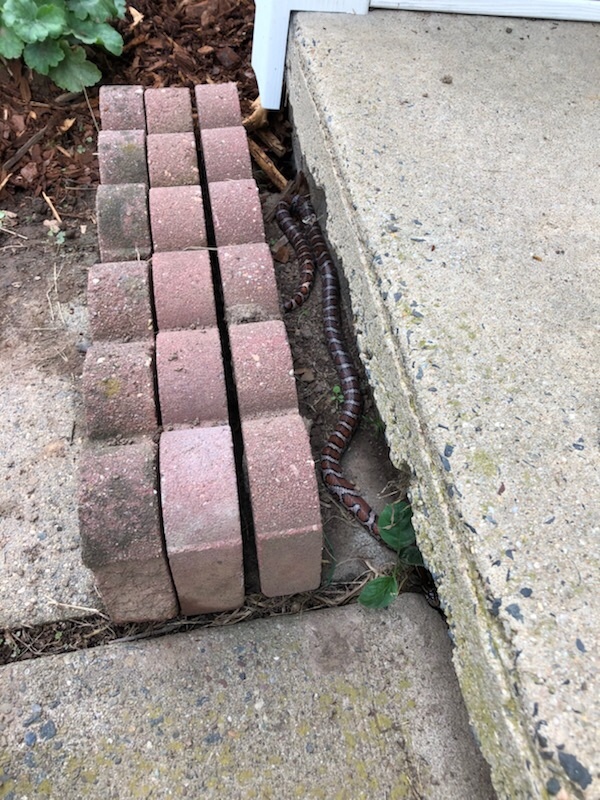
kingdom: Animalia
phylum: Chordata
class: Squamata
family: Colubridae
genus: Lampropeltis
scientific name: Lampropeltis triangulum
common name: Eastern milksnake
